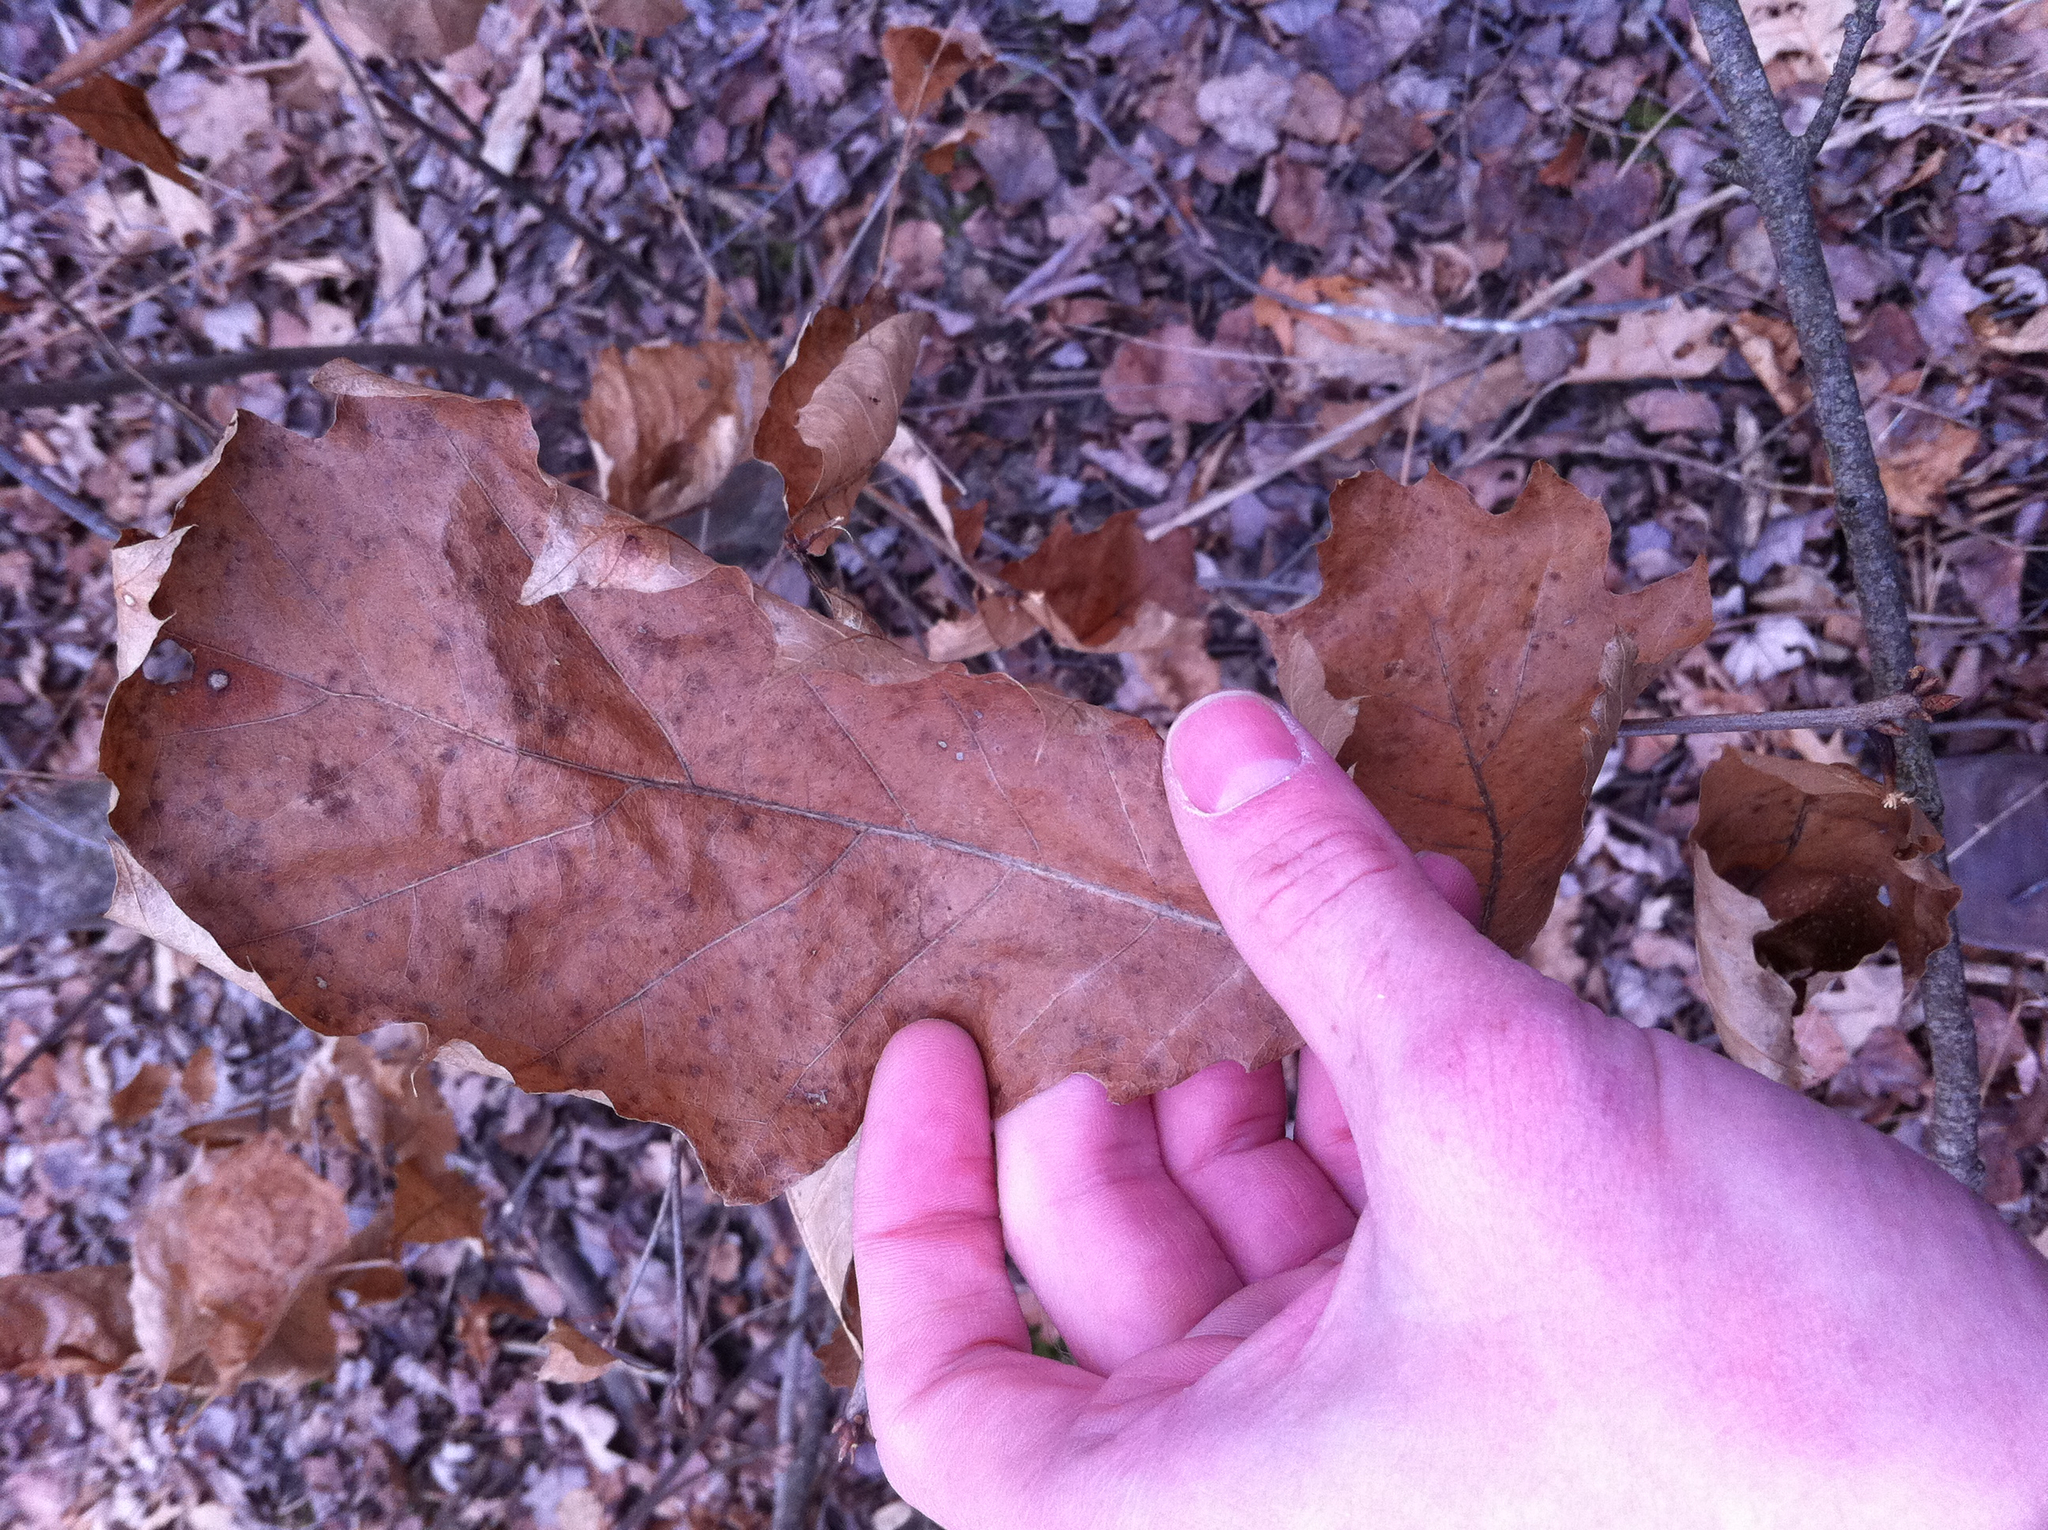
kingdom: Plantae
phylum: Tracheophyta
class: Magnoliopsida
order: Fagales
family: Fagaceae
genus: Quercus
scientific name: Quercus rubra
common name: Red oak
